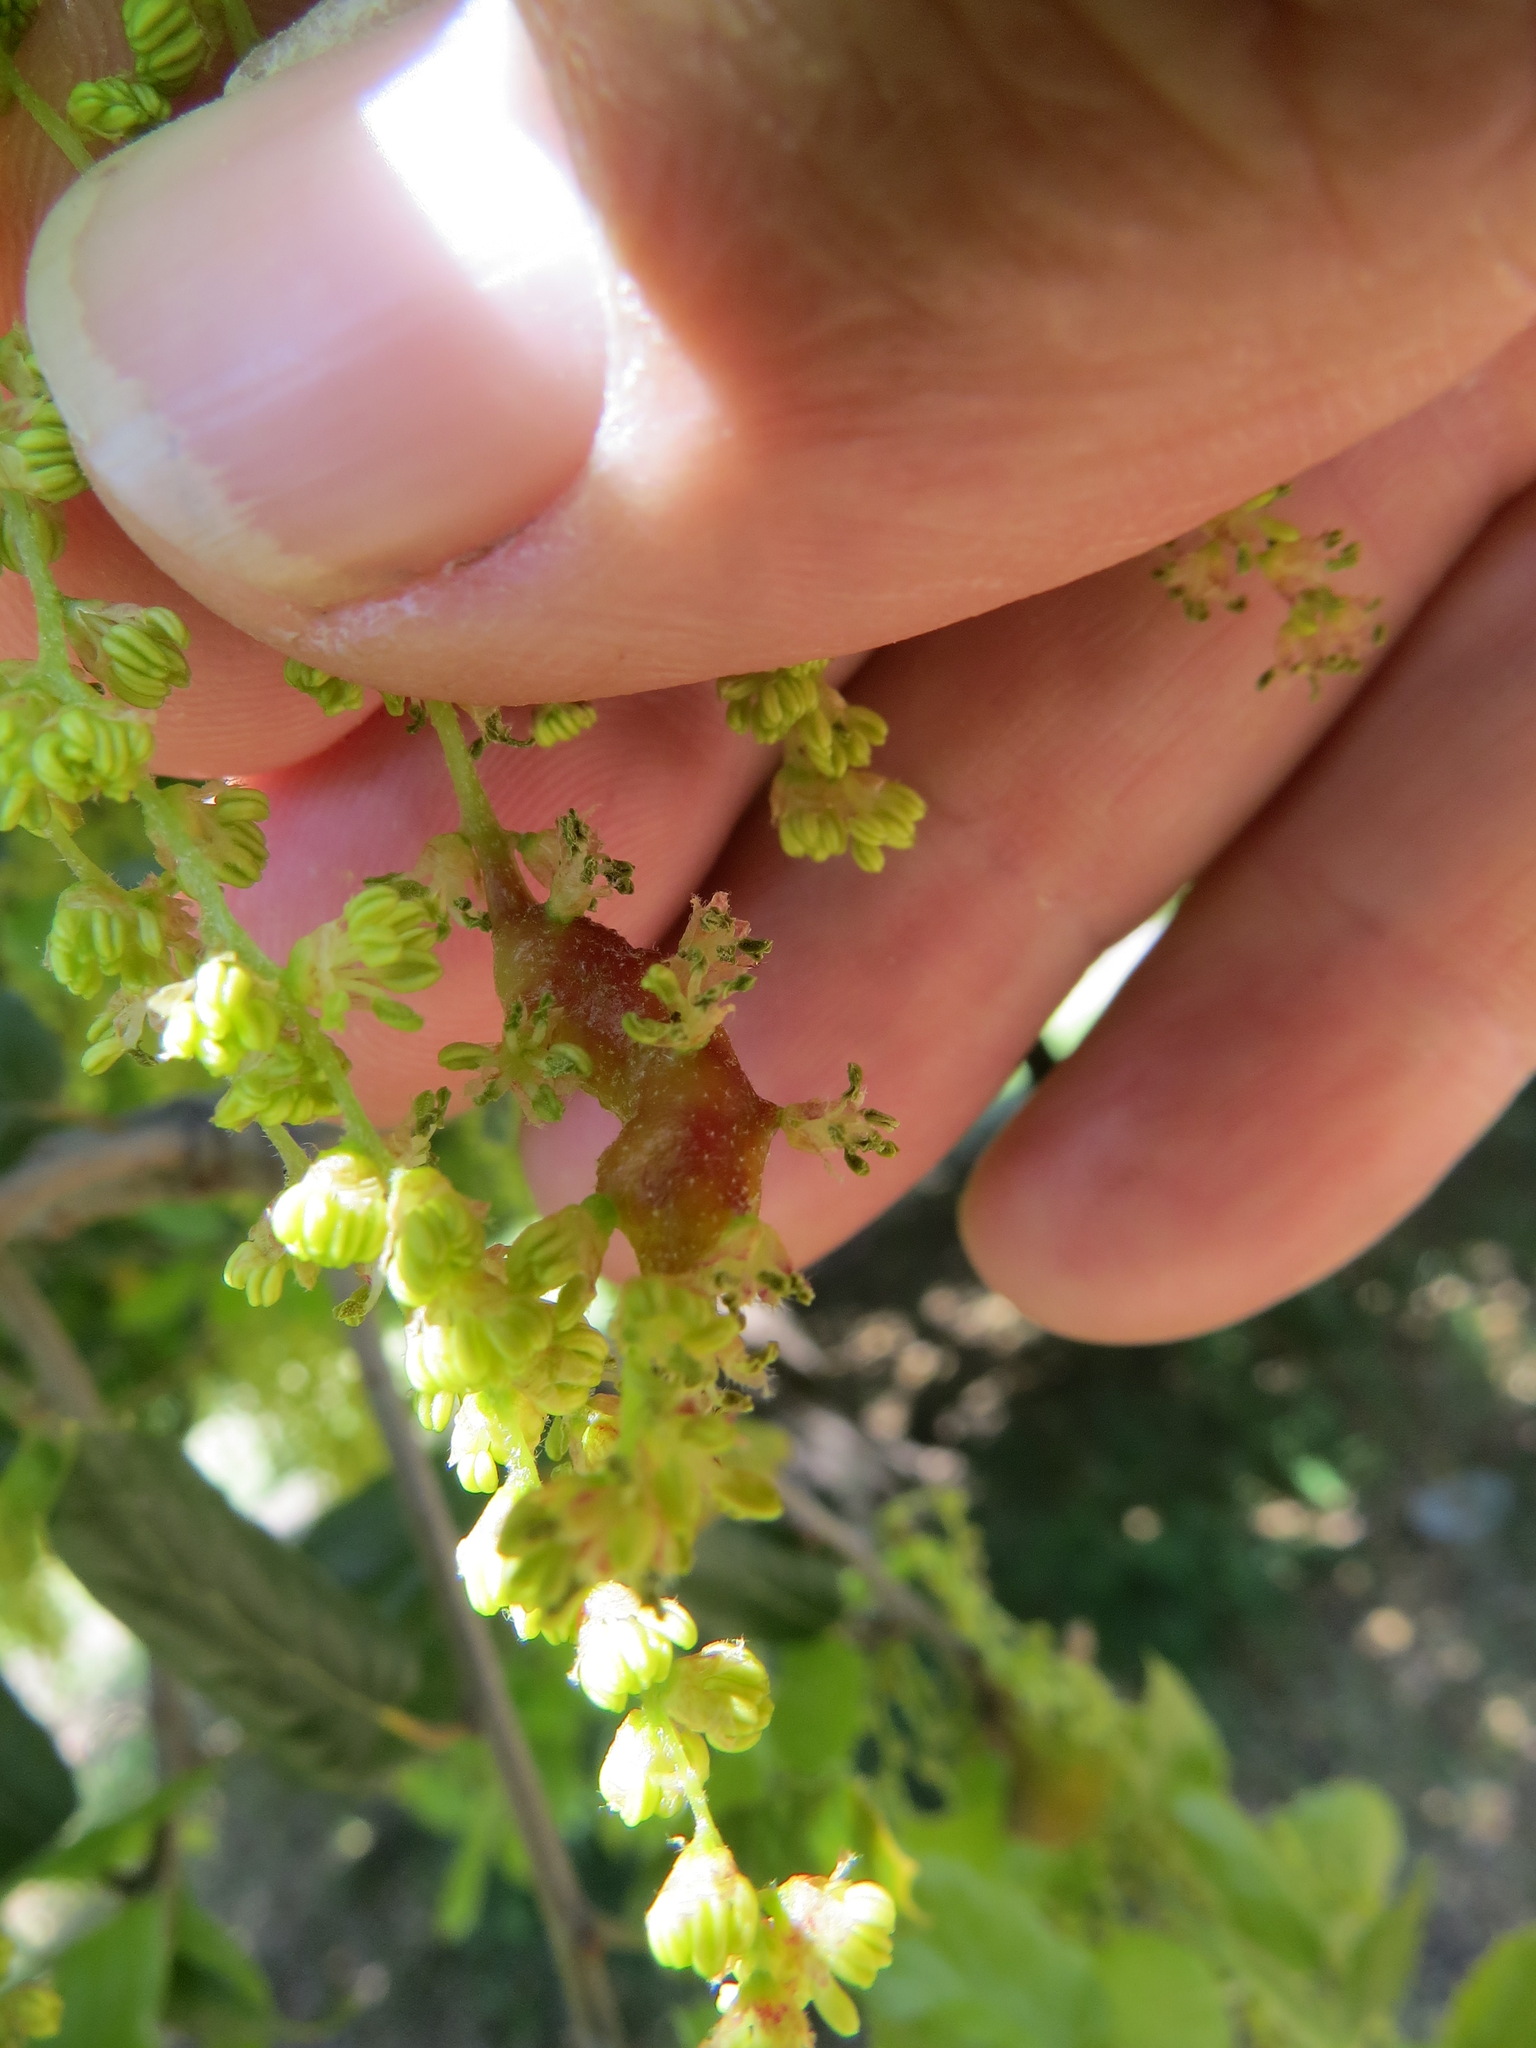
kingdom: Animalia
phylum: Arthropoda
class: Insecta
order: Hymenoptera
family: Cynipidae
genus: Callirhytis
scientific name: Callirhytis
